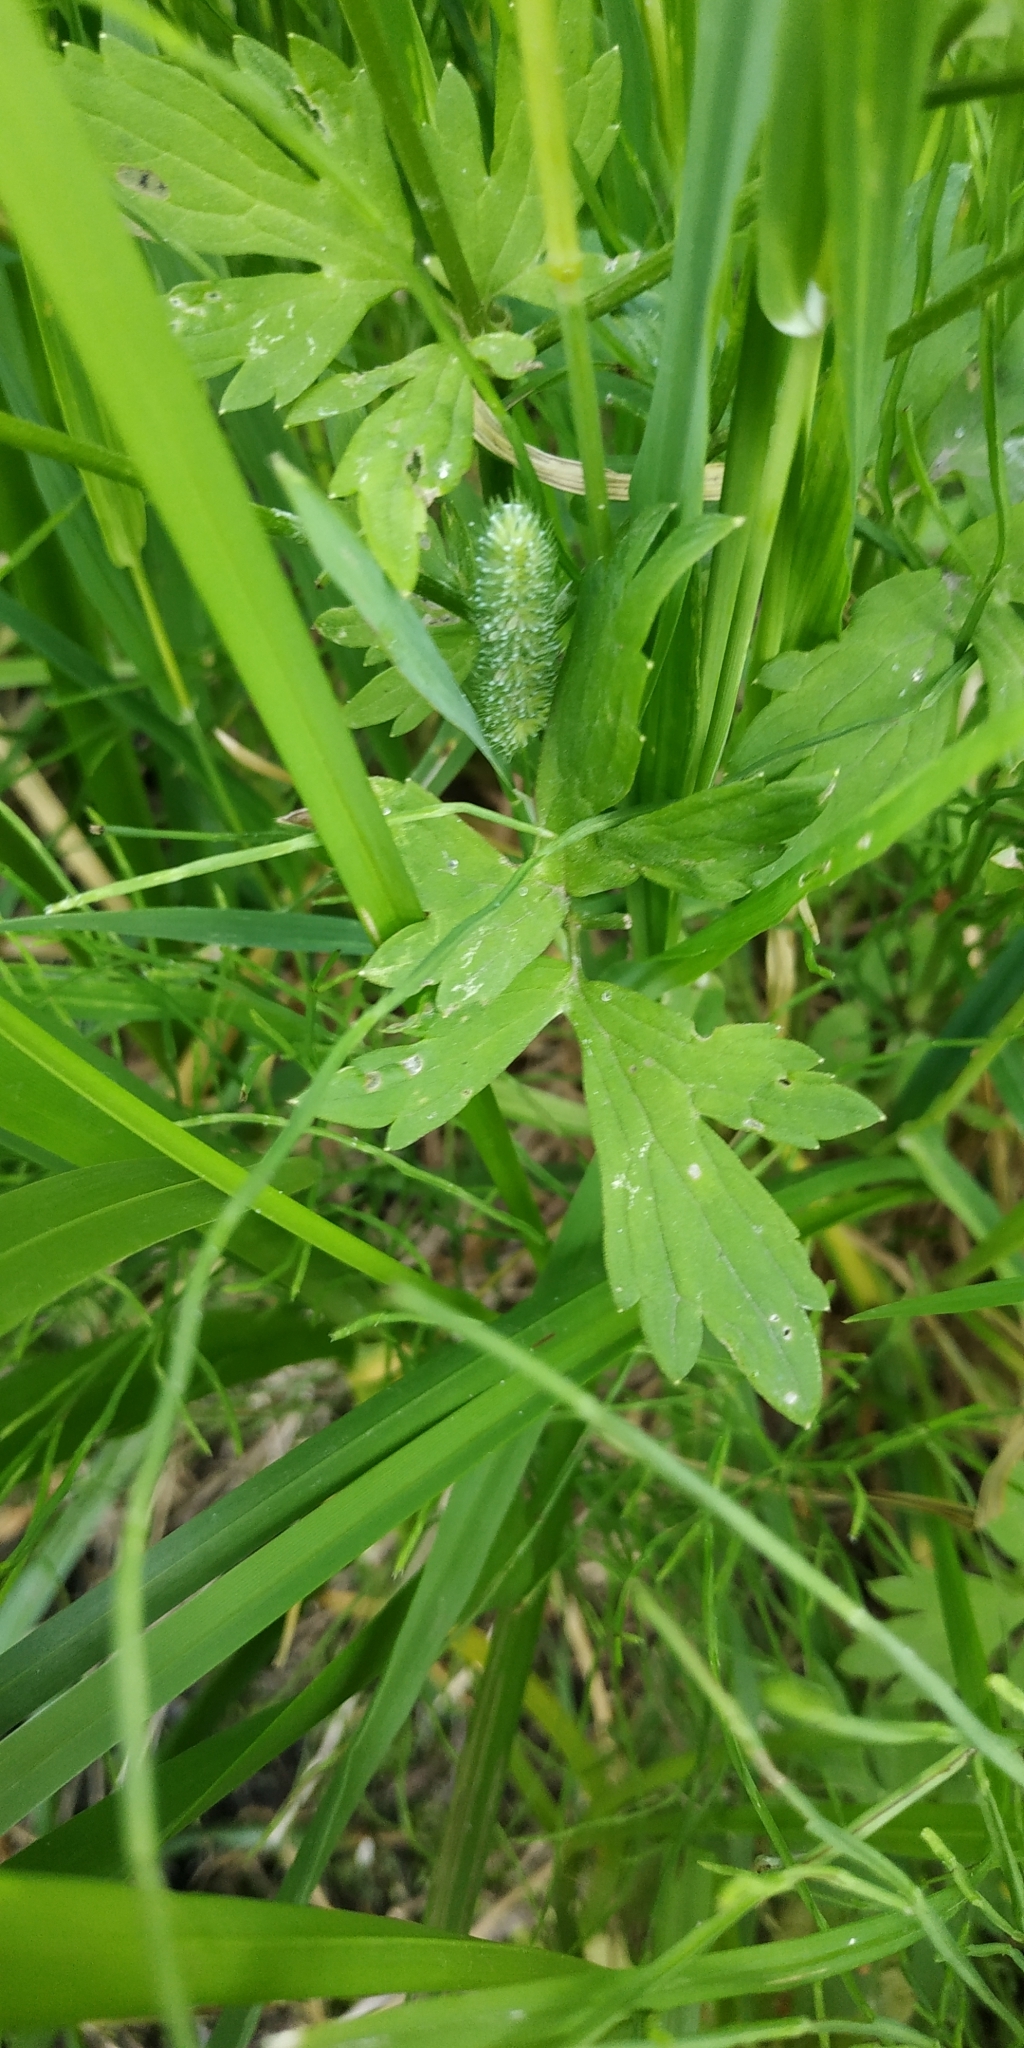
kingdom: Plantae
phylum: Tracheophyta
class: Magnoliopsida
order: Ranunculales
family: Ranunculaceae
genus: Ranunculus
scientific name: Ranunculus repens
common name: Creeping buttercup
